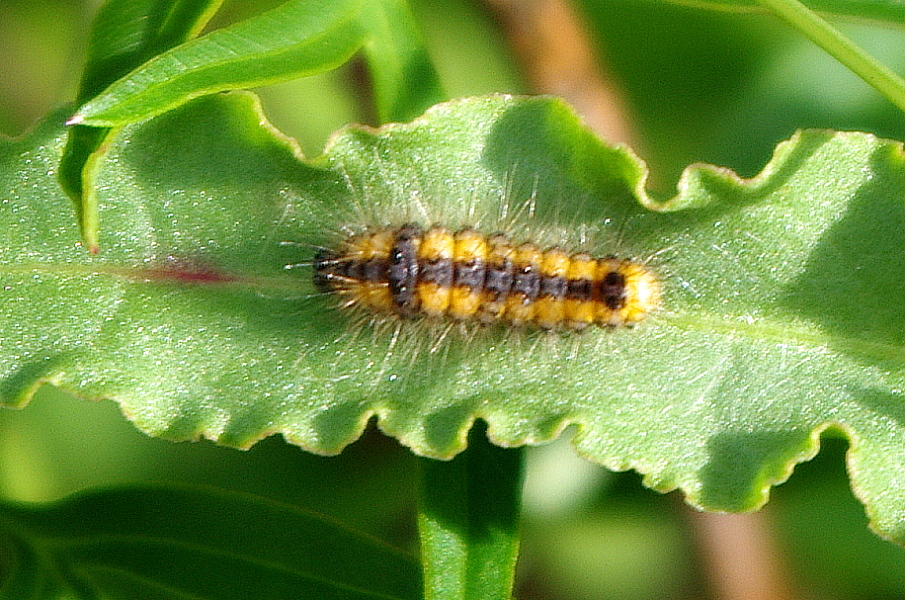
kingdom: Animalia
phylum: Arthropoda
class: Insecta
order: Lepidoptera
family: Noctuidae
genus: Acronicta
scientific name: Acronicta auricoma
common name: Scarce dagger
